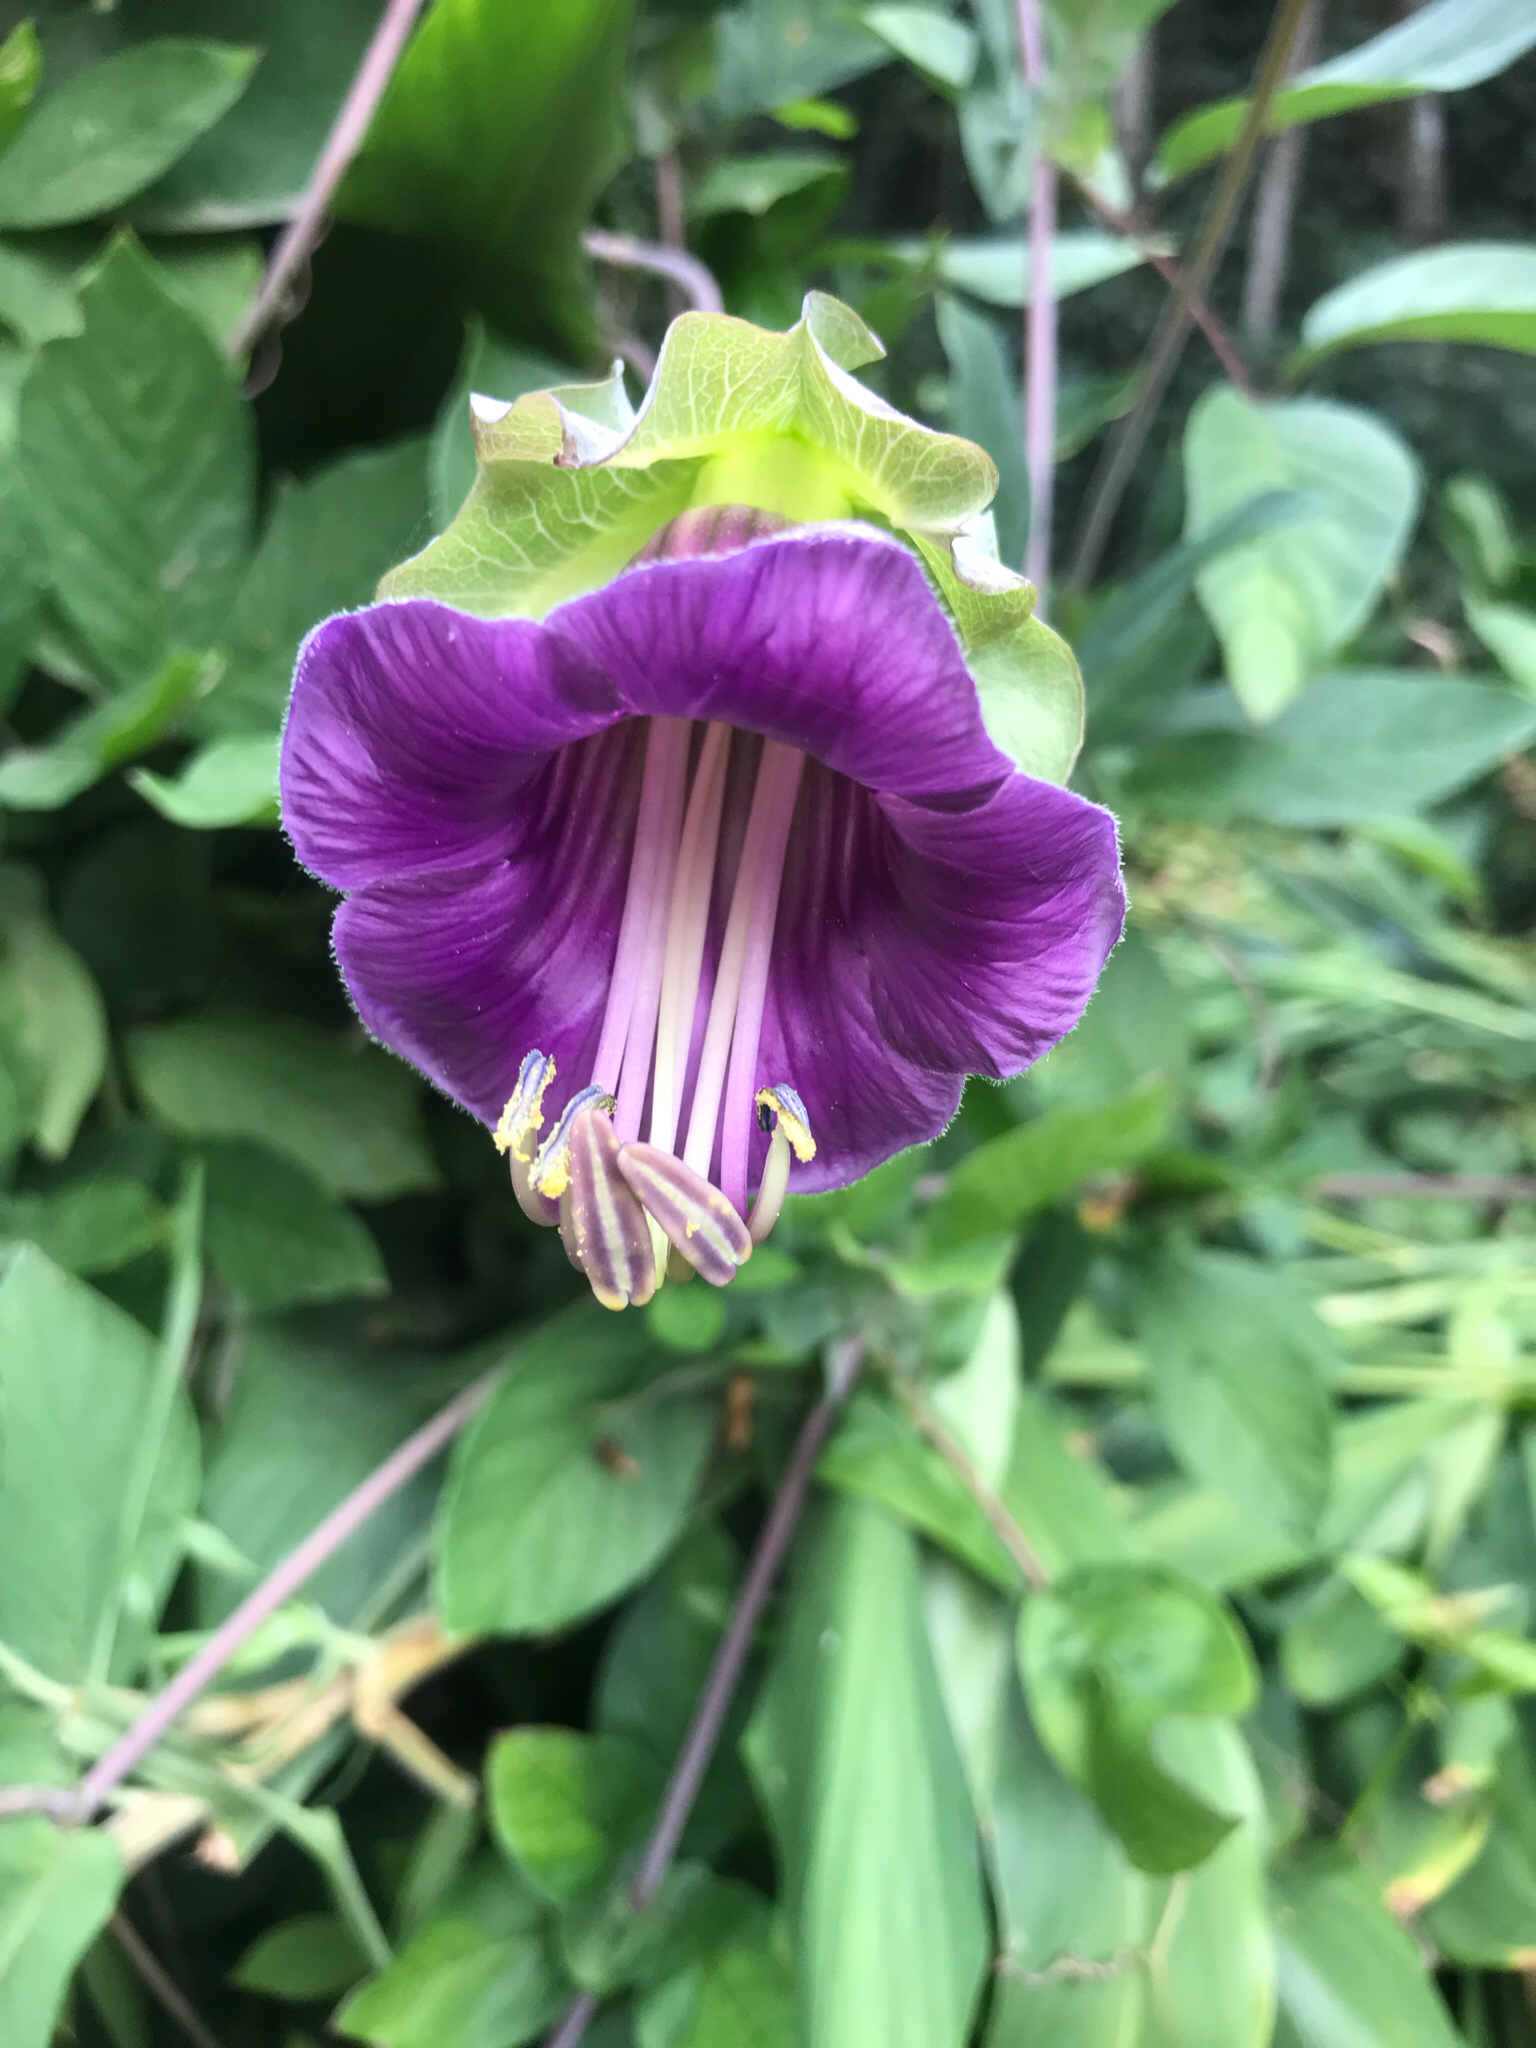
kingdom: Plantae
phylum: Tracheophyta
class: Magnoliopsida
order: Ericales
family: Polemoniaceae
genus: Cobaea
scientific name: Cobaea scandens
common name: Cup-and-saucer-vine
